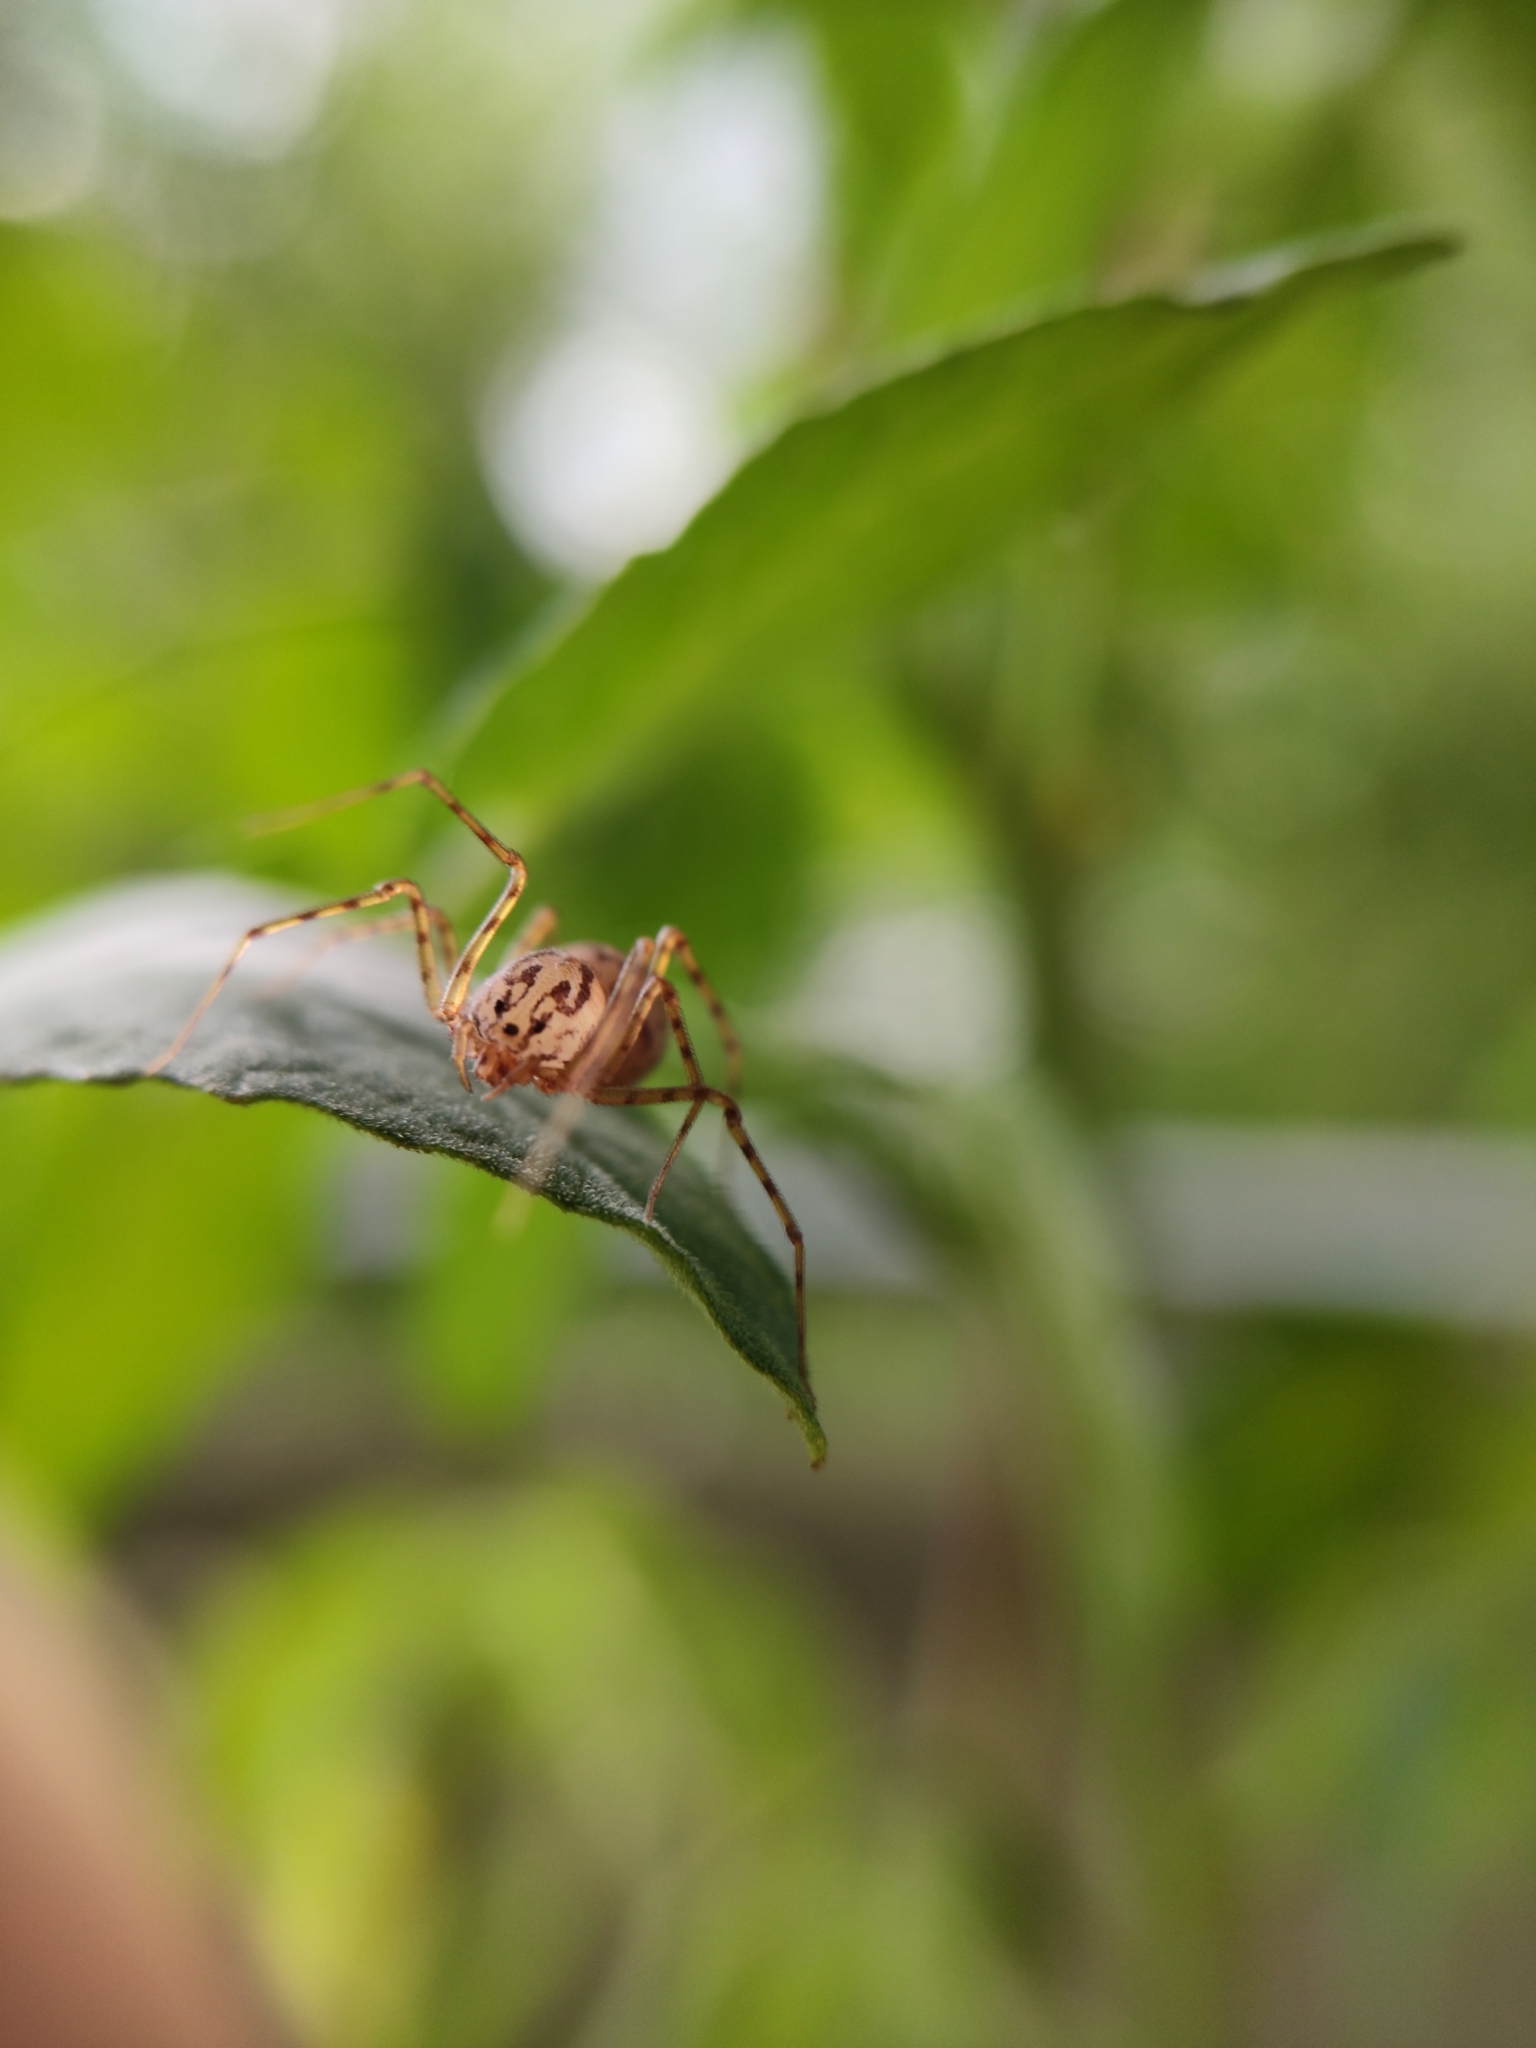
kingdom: Animalia
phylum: Arthropoda
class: Arachnida
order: Araneae
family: Scytodidae
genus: Scytodes
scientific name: Scytodes thoracica
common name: Spitting spider
